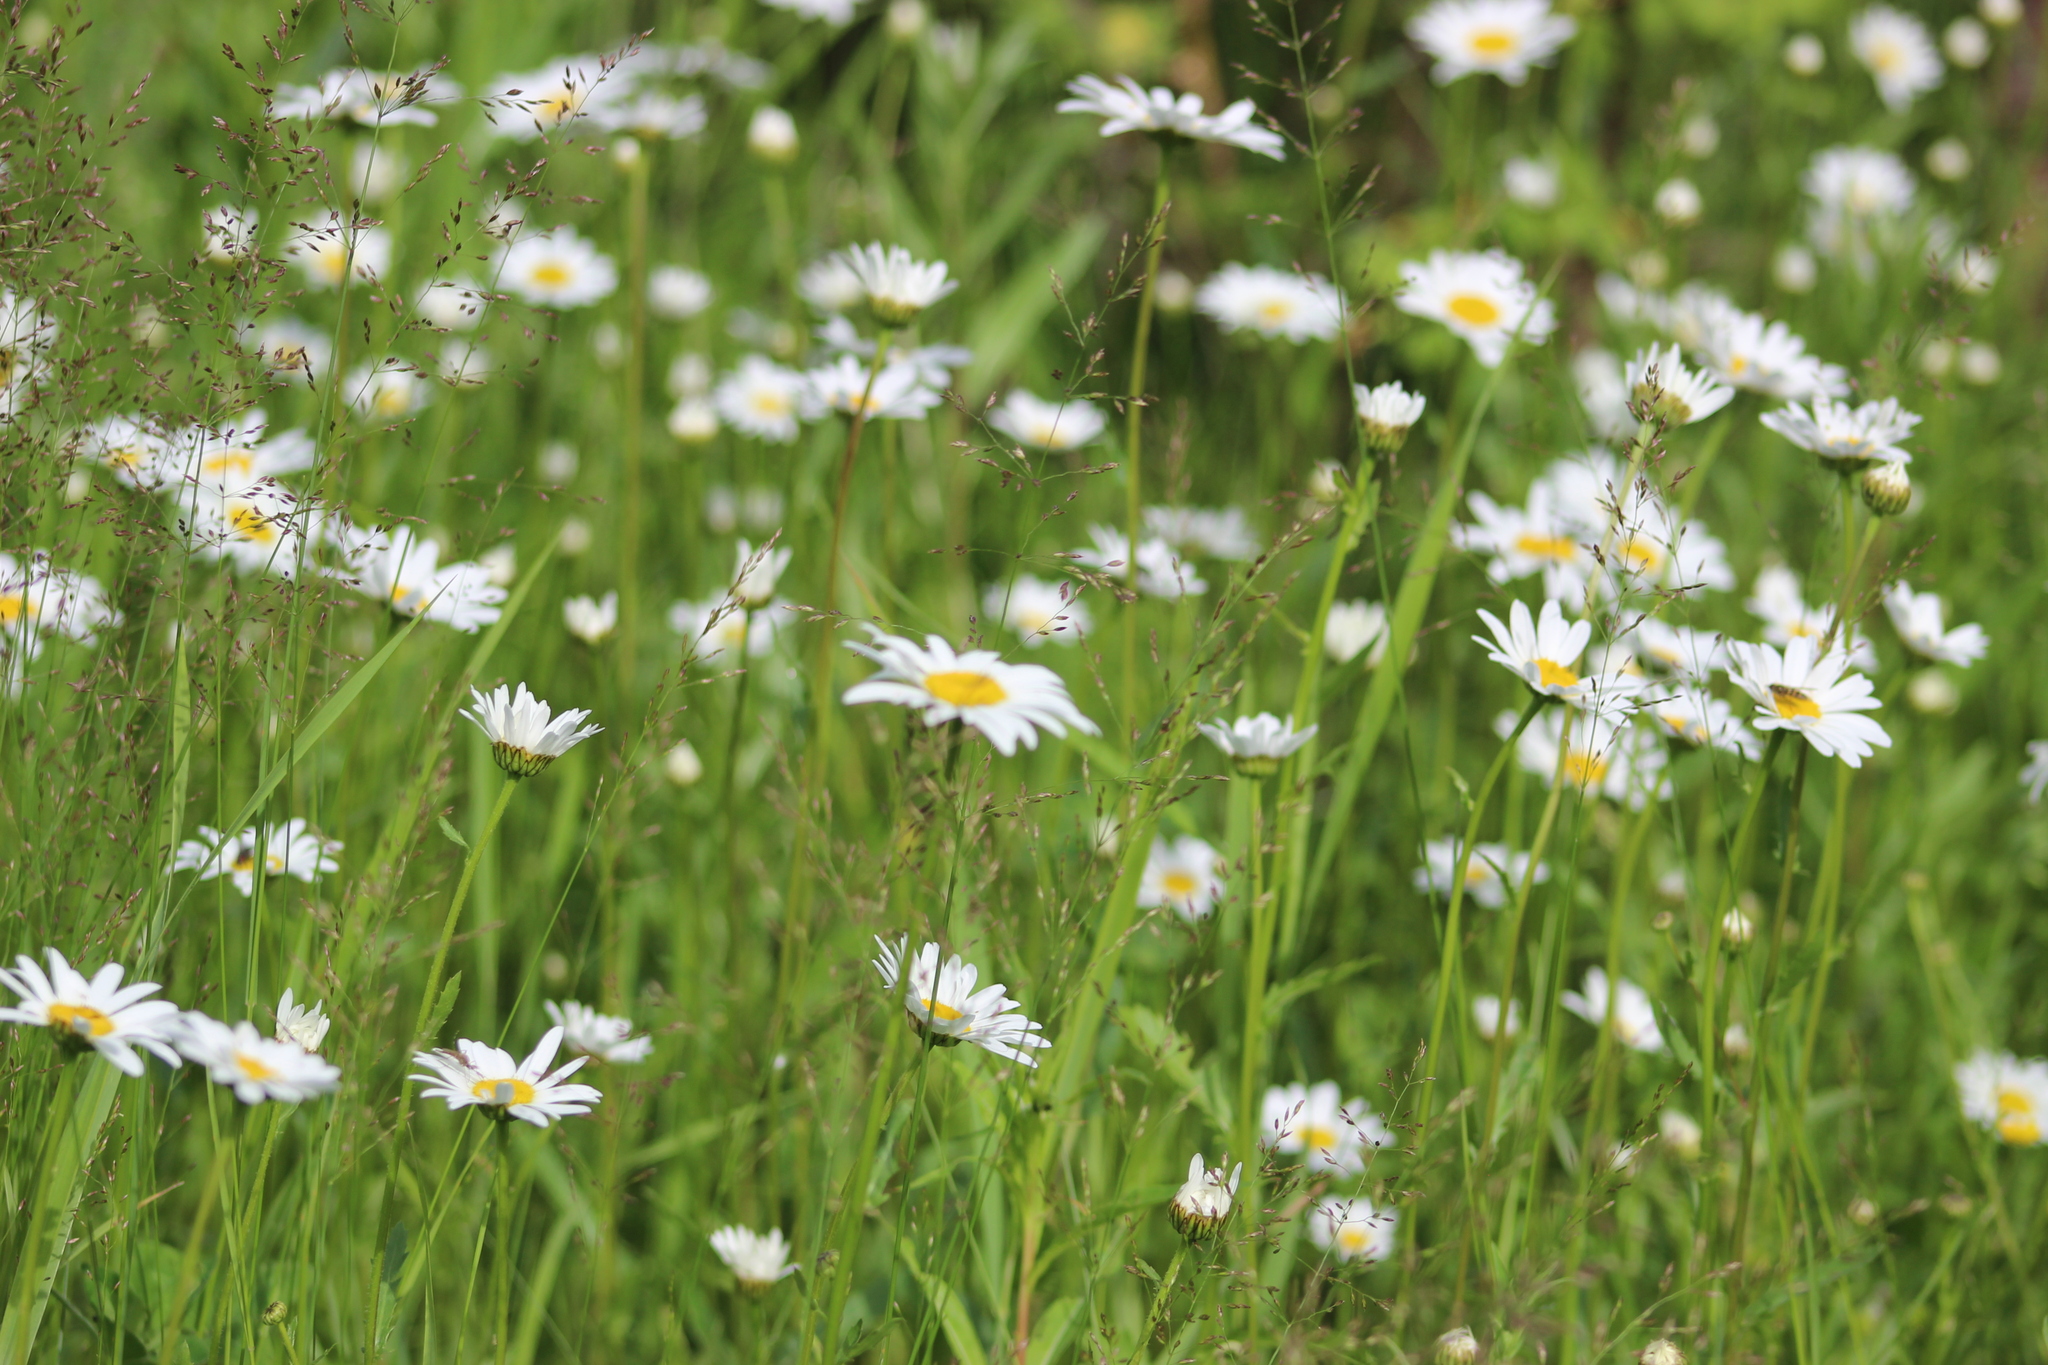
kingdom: Plantae
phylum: Tracheophyta
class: Magnoliopsida
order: Asterales
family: Asteraceae
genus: Leucanthemum
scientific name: Leucanthemum ircutianum
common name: Daisy
